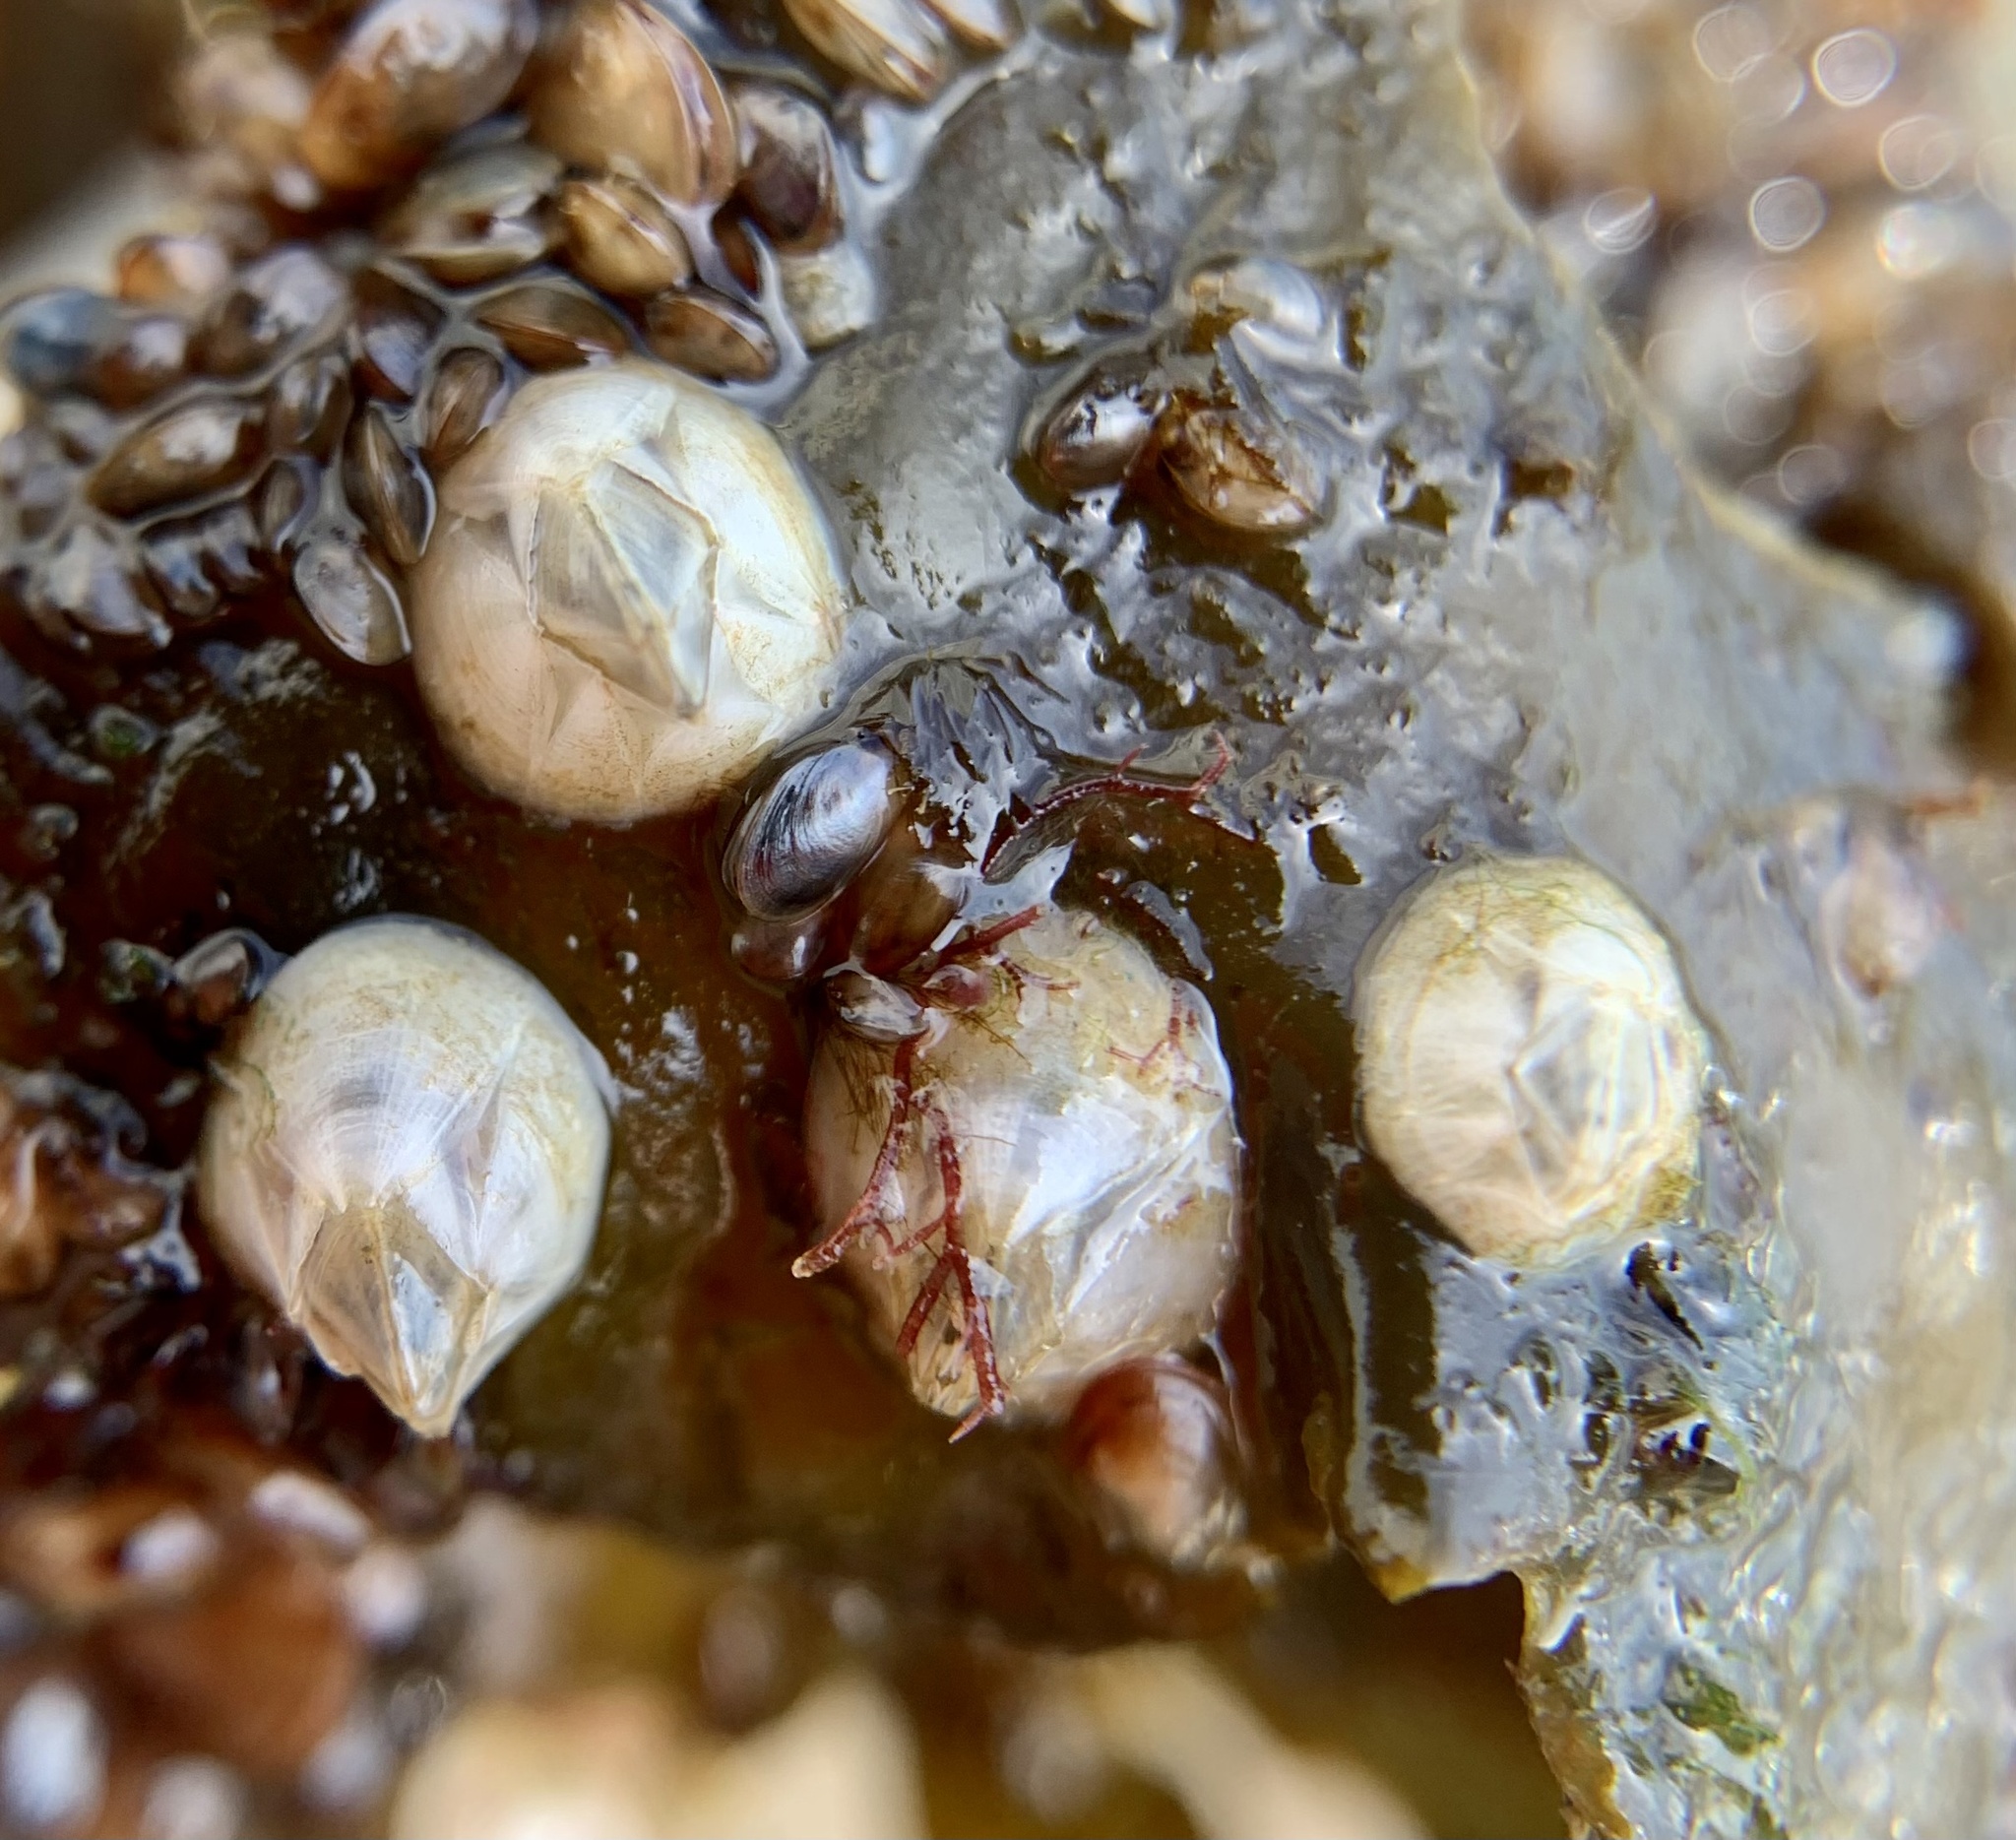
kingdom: Animalia
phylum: Arthropoda
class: Maxillopoda
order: Sessilia
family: Balanidae
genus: Amphibalanus
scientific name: Amphibalanus improvisus
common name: Bay barnacle
